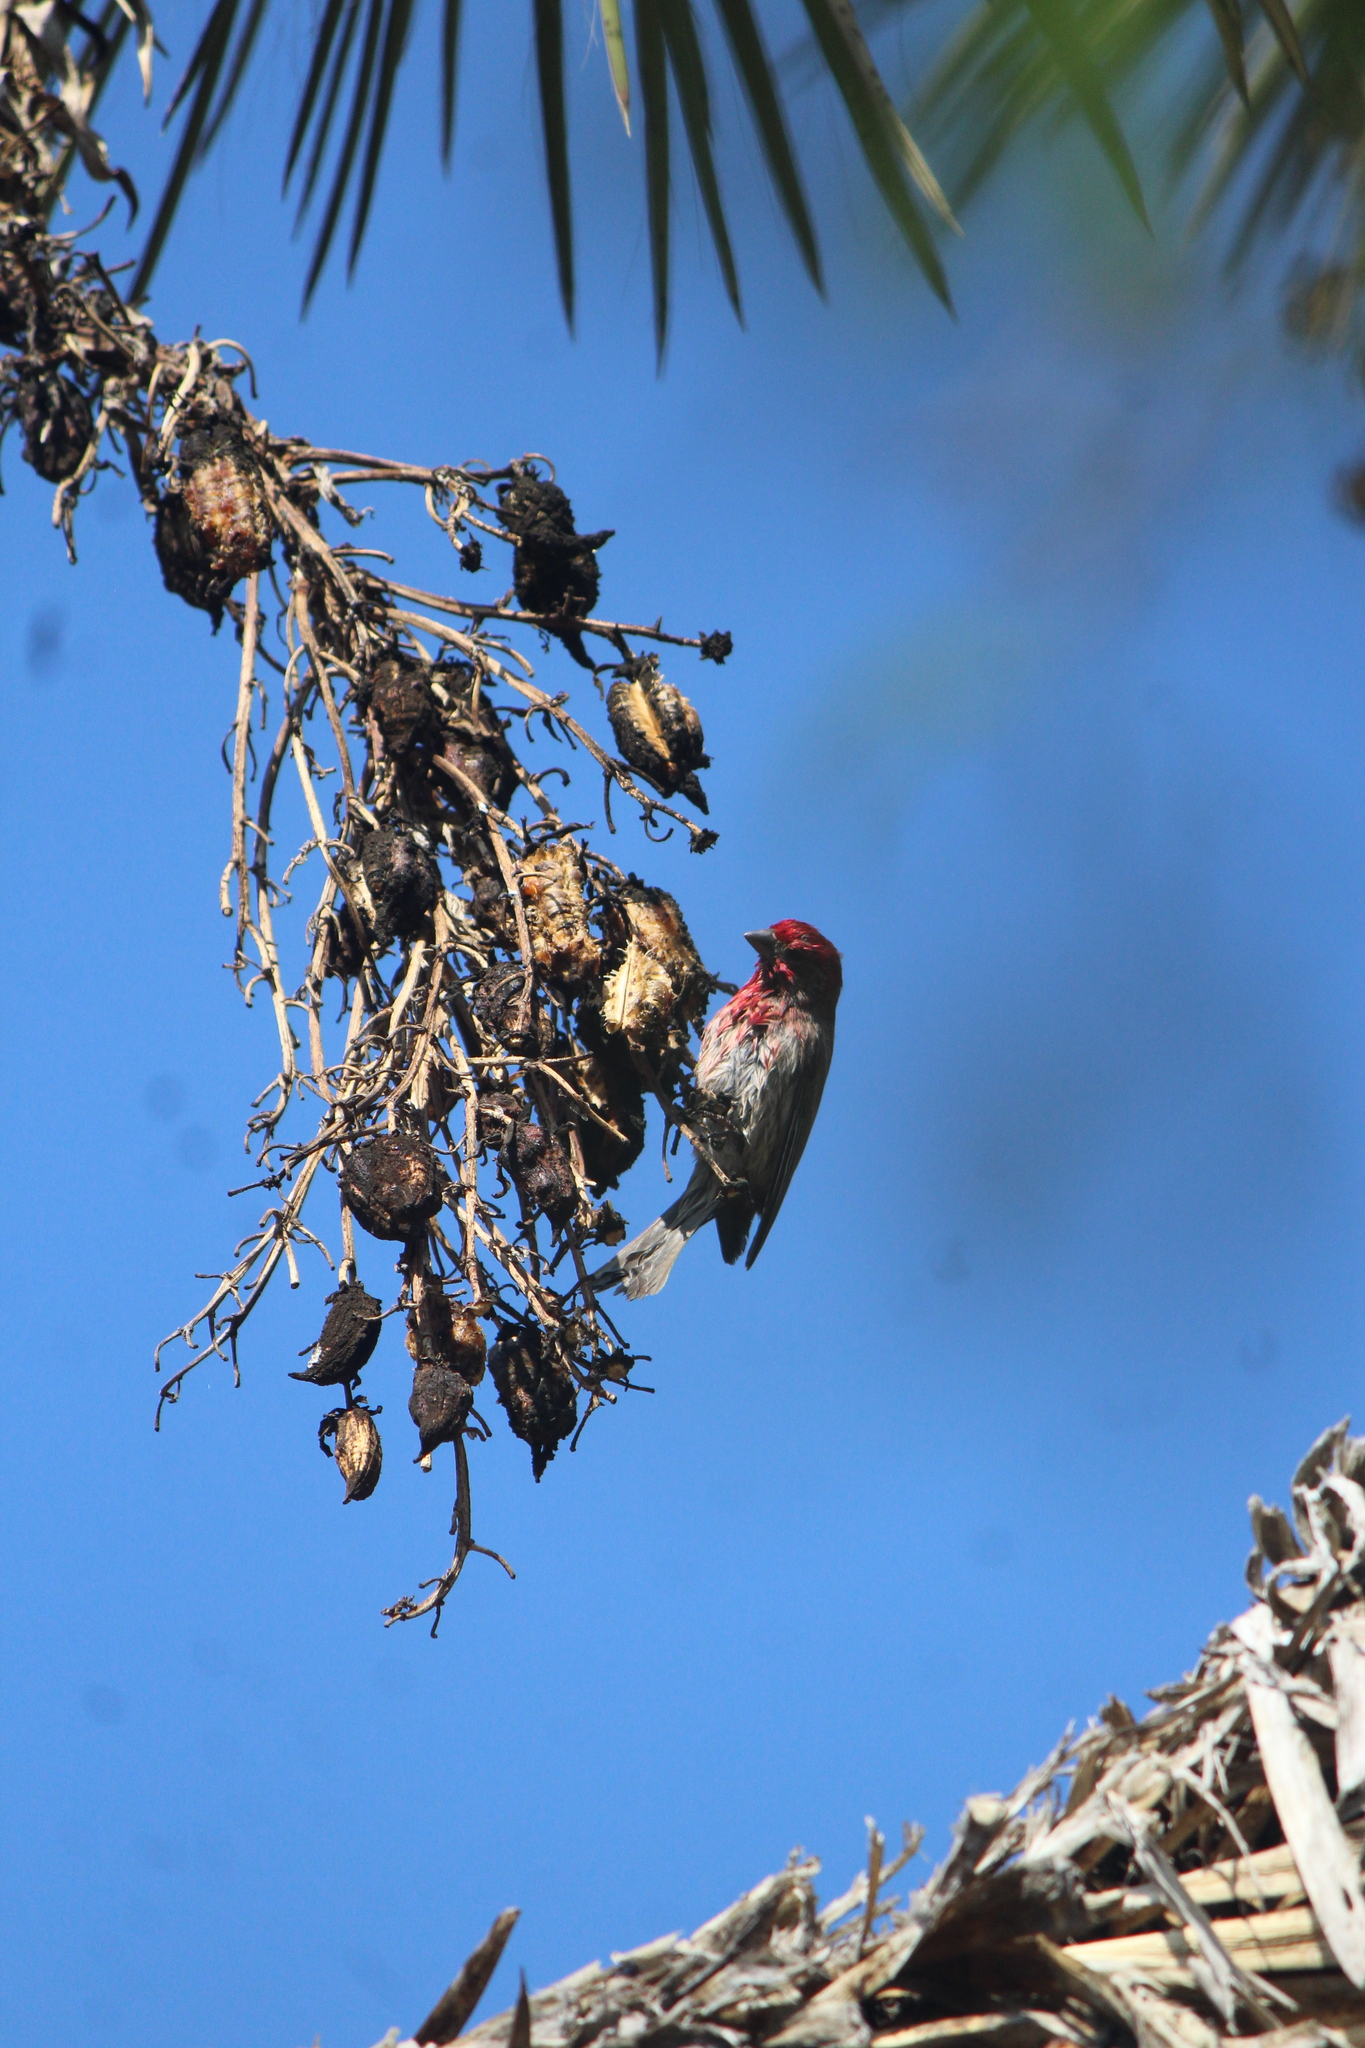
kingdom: Animalia
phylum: Chordata
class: Aves
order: Passeriformes
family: Fringillidae
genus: Haemorhous
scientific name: Haemorhous mexicanus
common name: House finch
